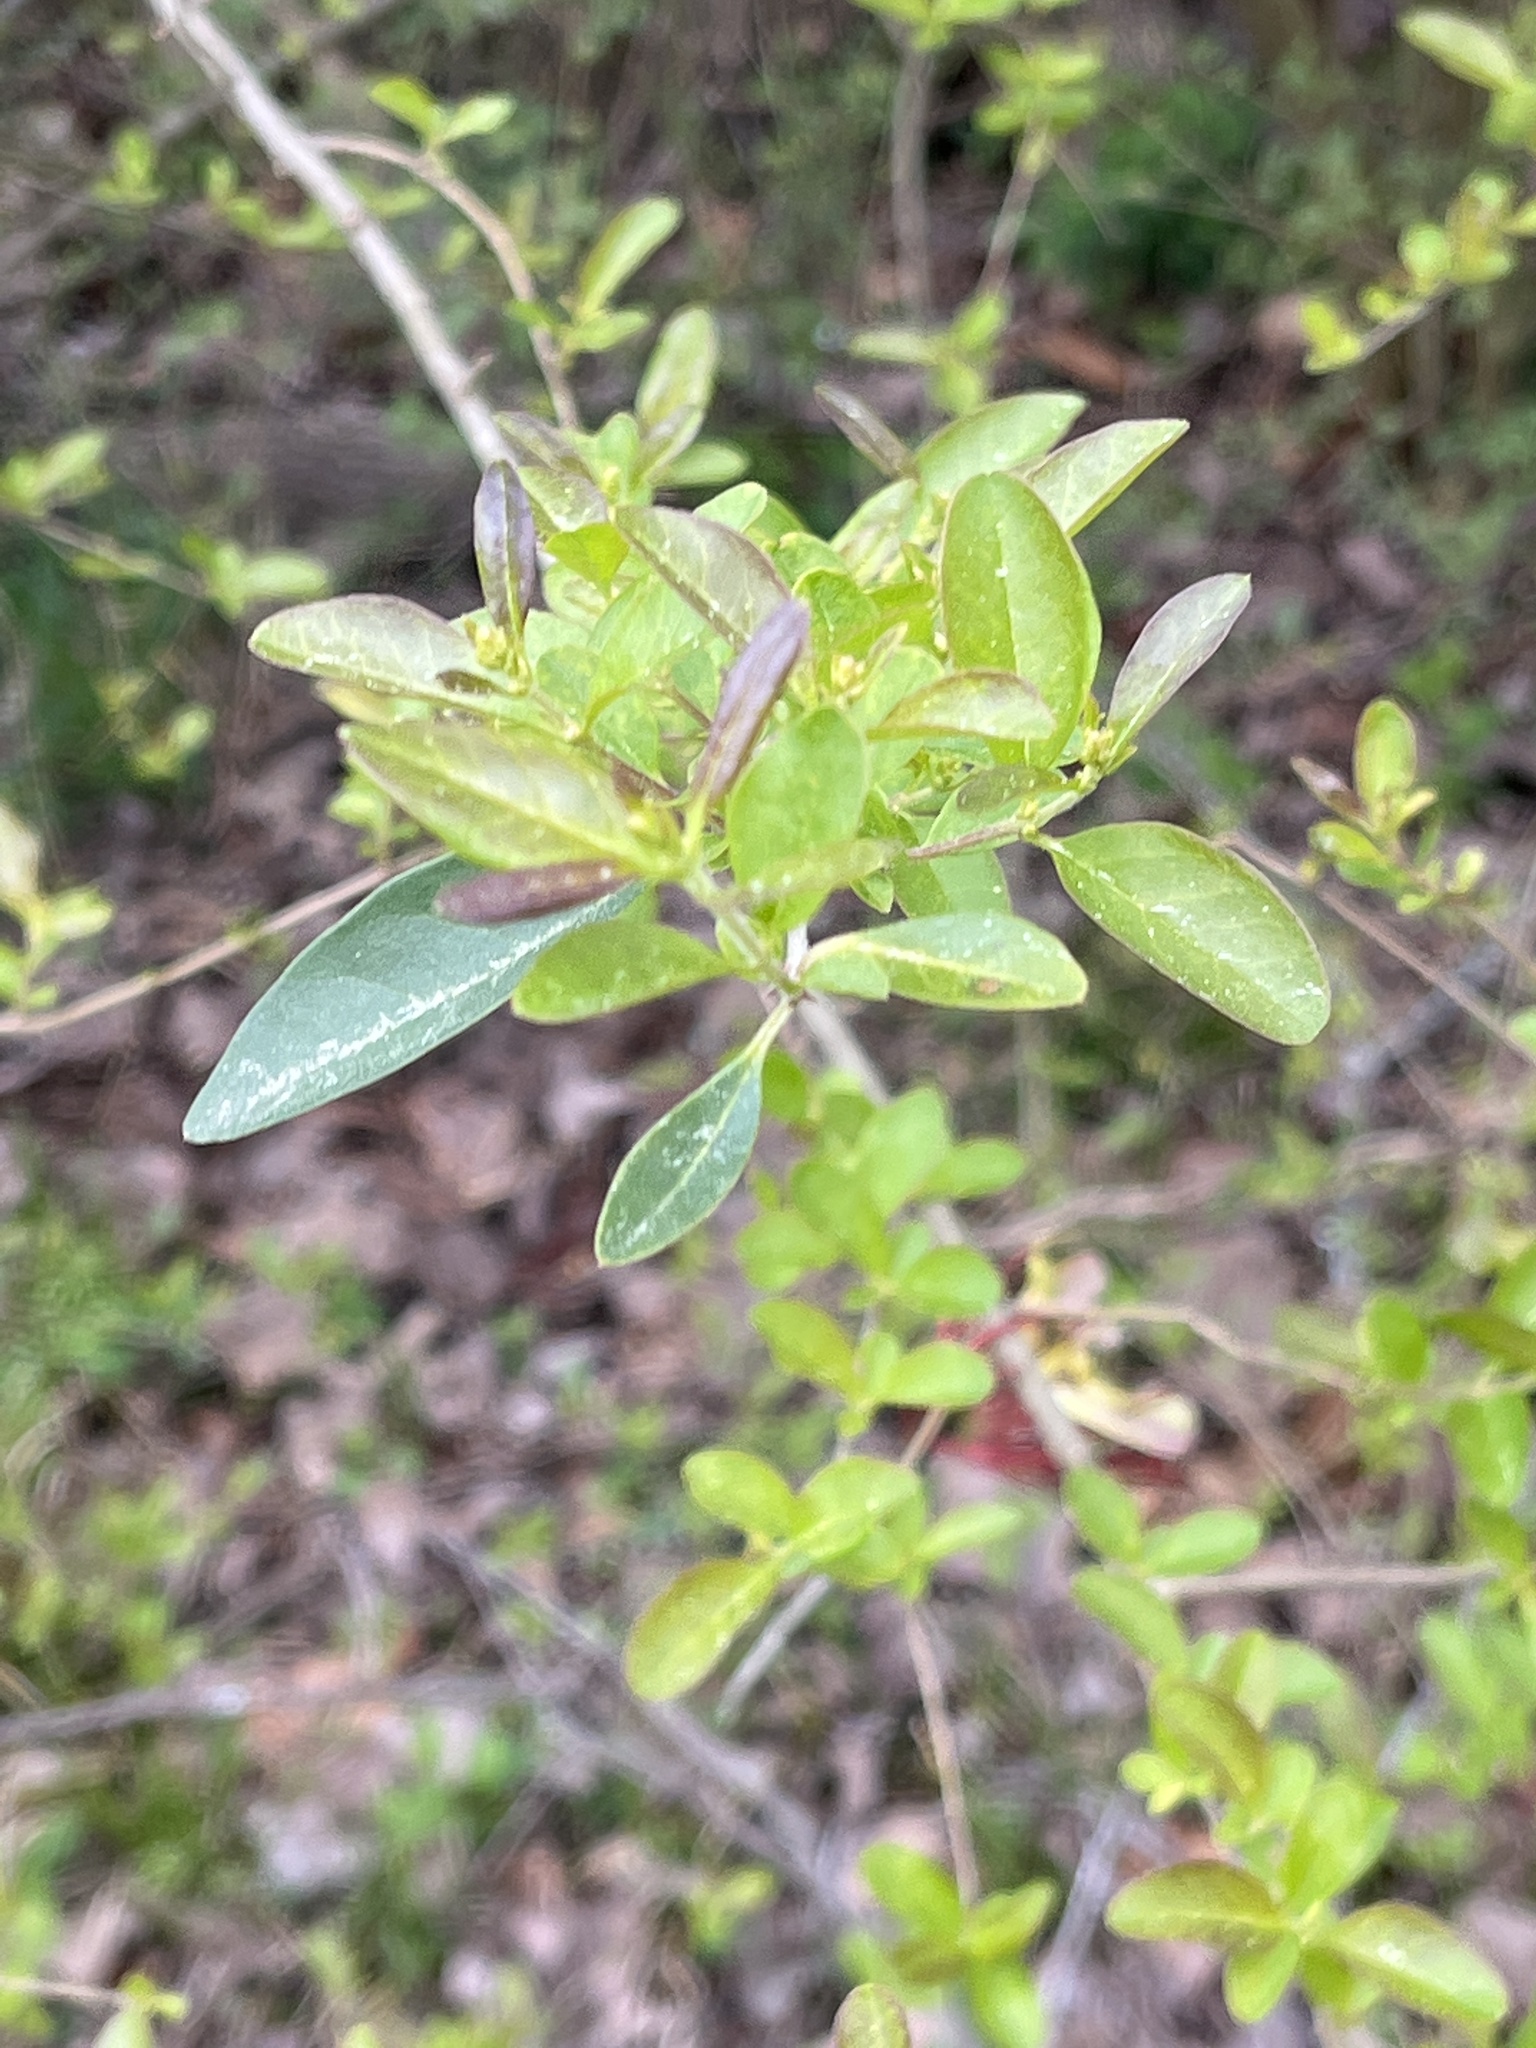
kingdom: Plantae
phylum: Tracheophyta
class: Magnoliopsida
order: Lamiales
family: Oleaceae
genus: Ligustrum
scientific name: Ligustrum sinense
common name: Chinese privet
